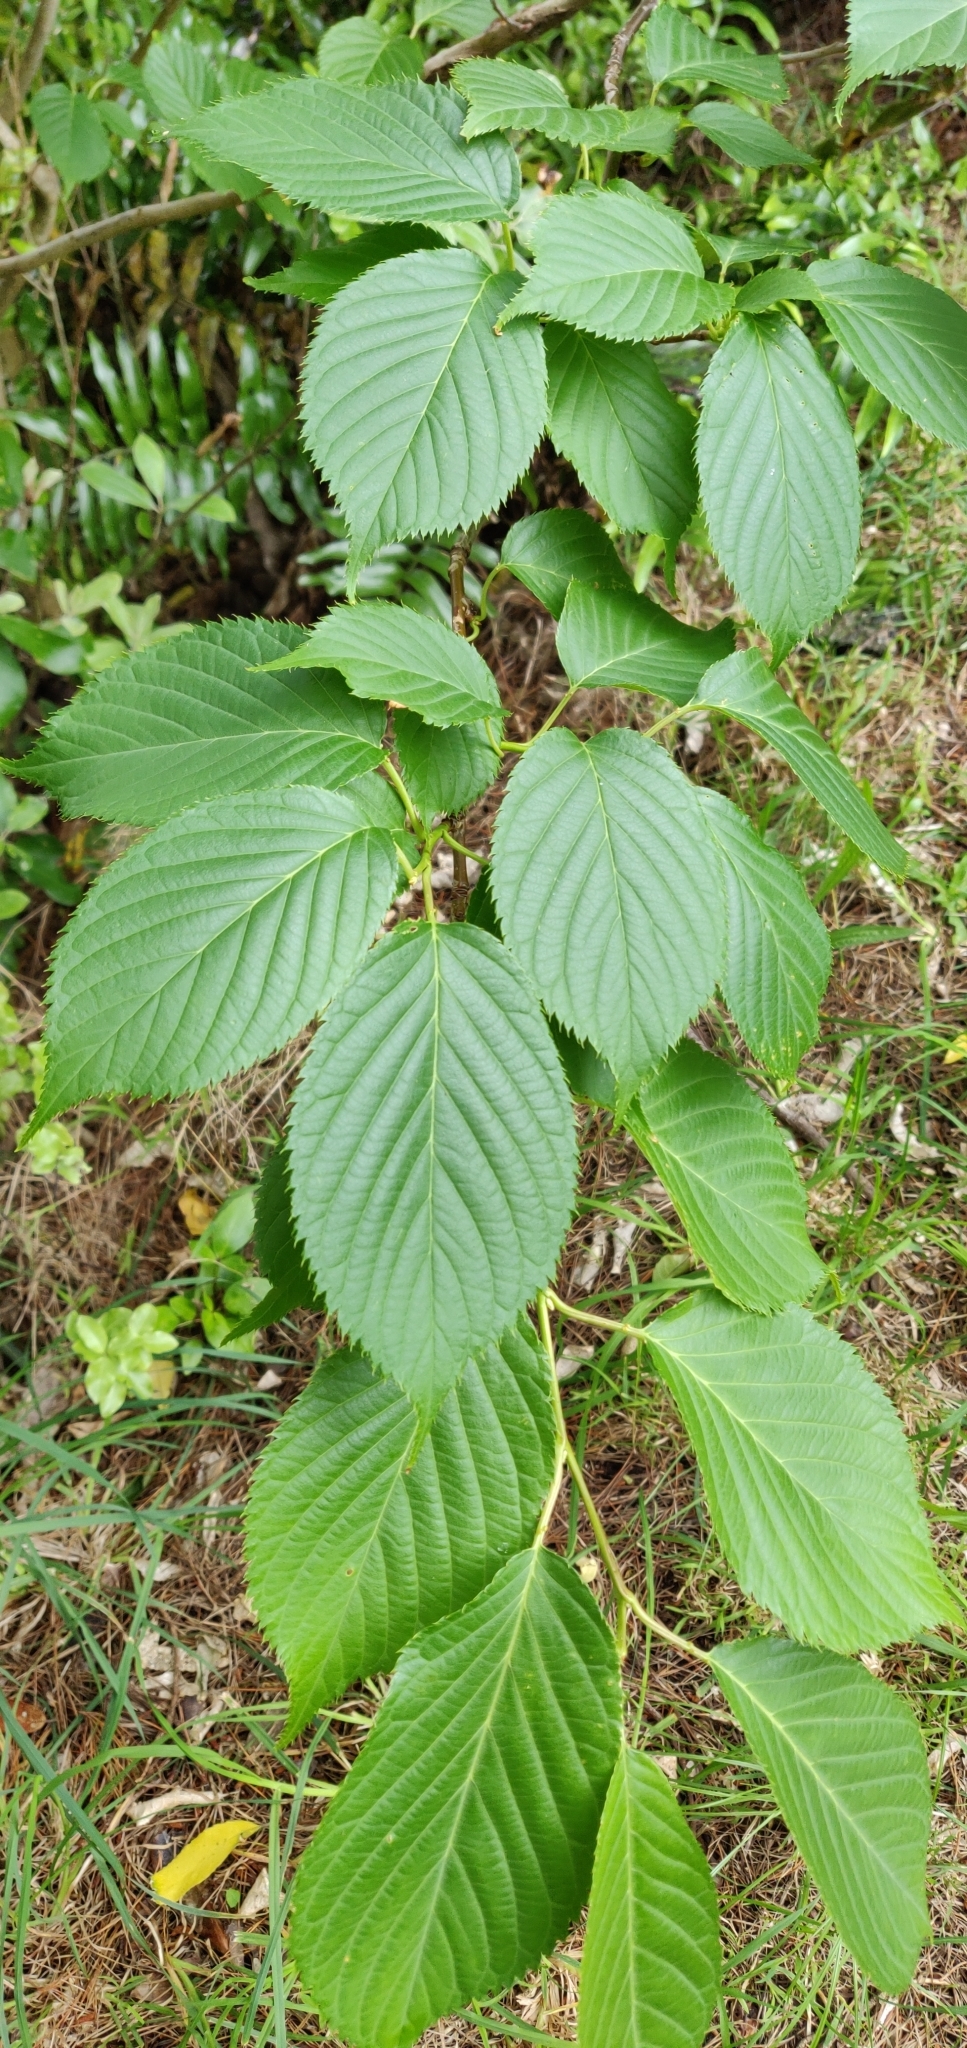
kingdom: Plantae
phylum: Tracheophyta
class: Magnoliopsida
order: Rosales
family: Rosaceae
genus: Prunus
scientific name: Prunus serrulata
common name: Japanese cherry
